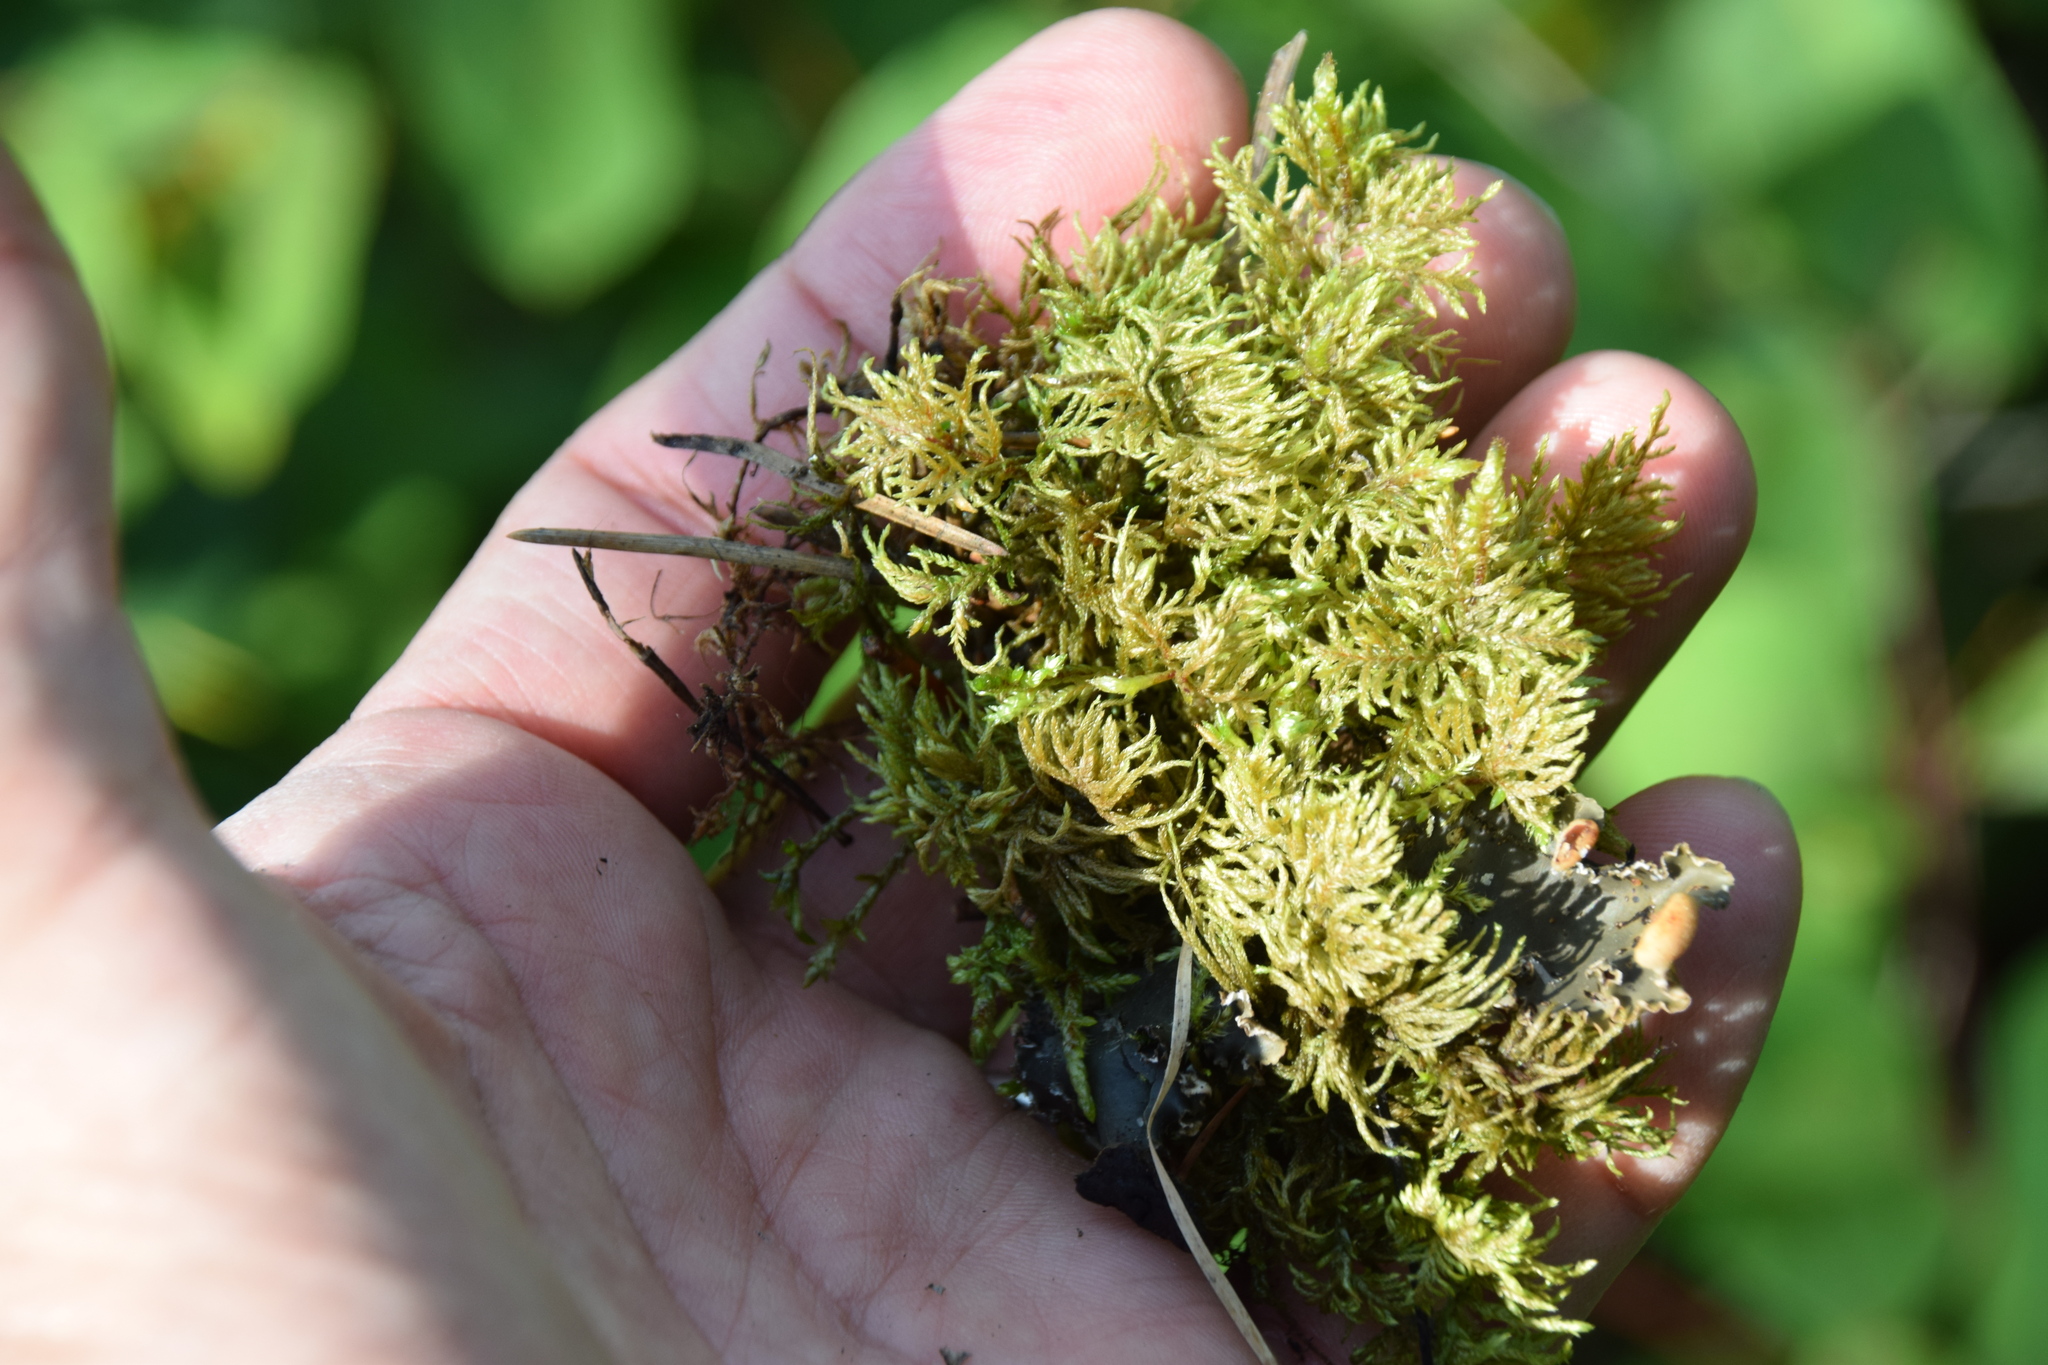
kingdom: Plantae
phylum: Bryophyta
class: Bryopsida
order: Hypnales
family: Hylocomiaceae
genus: Hylocomium
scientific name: Hylocomium splendens
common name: Stairstep moss
